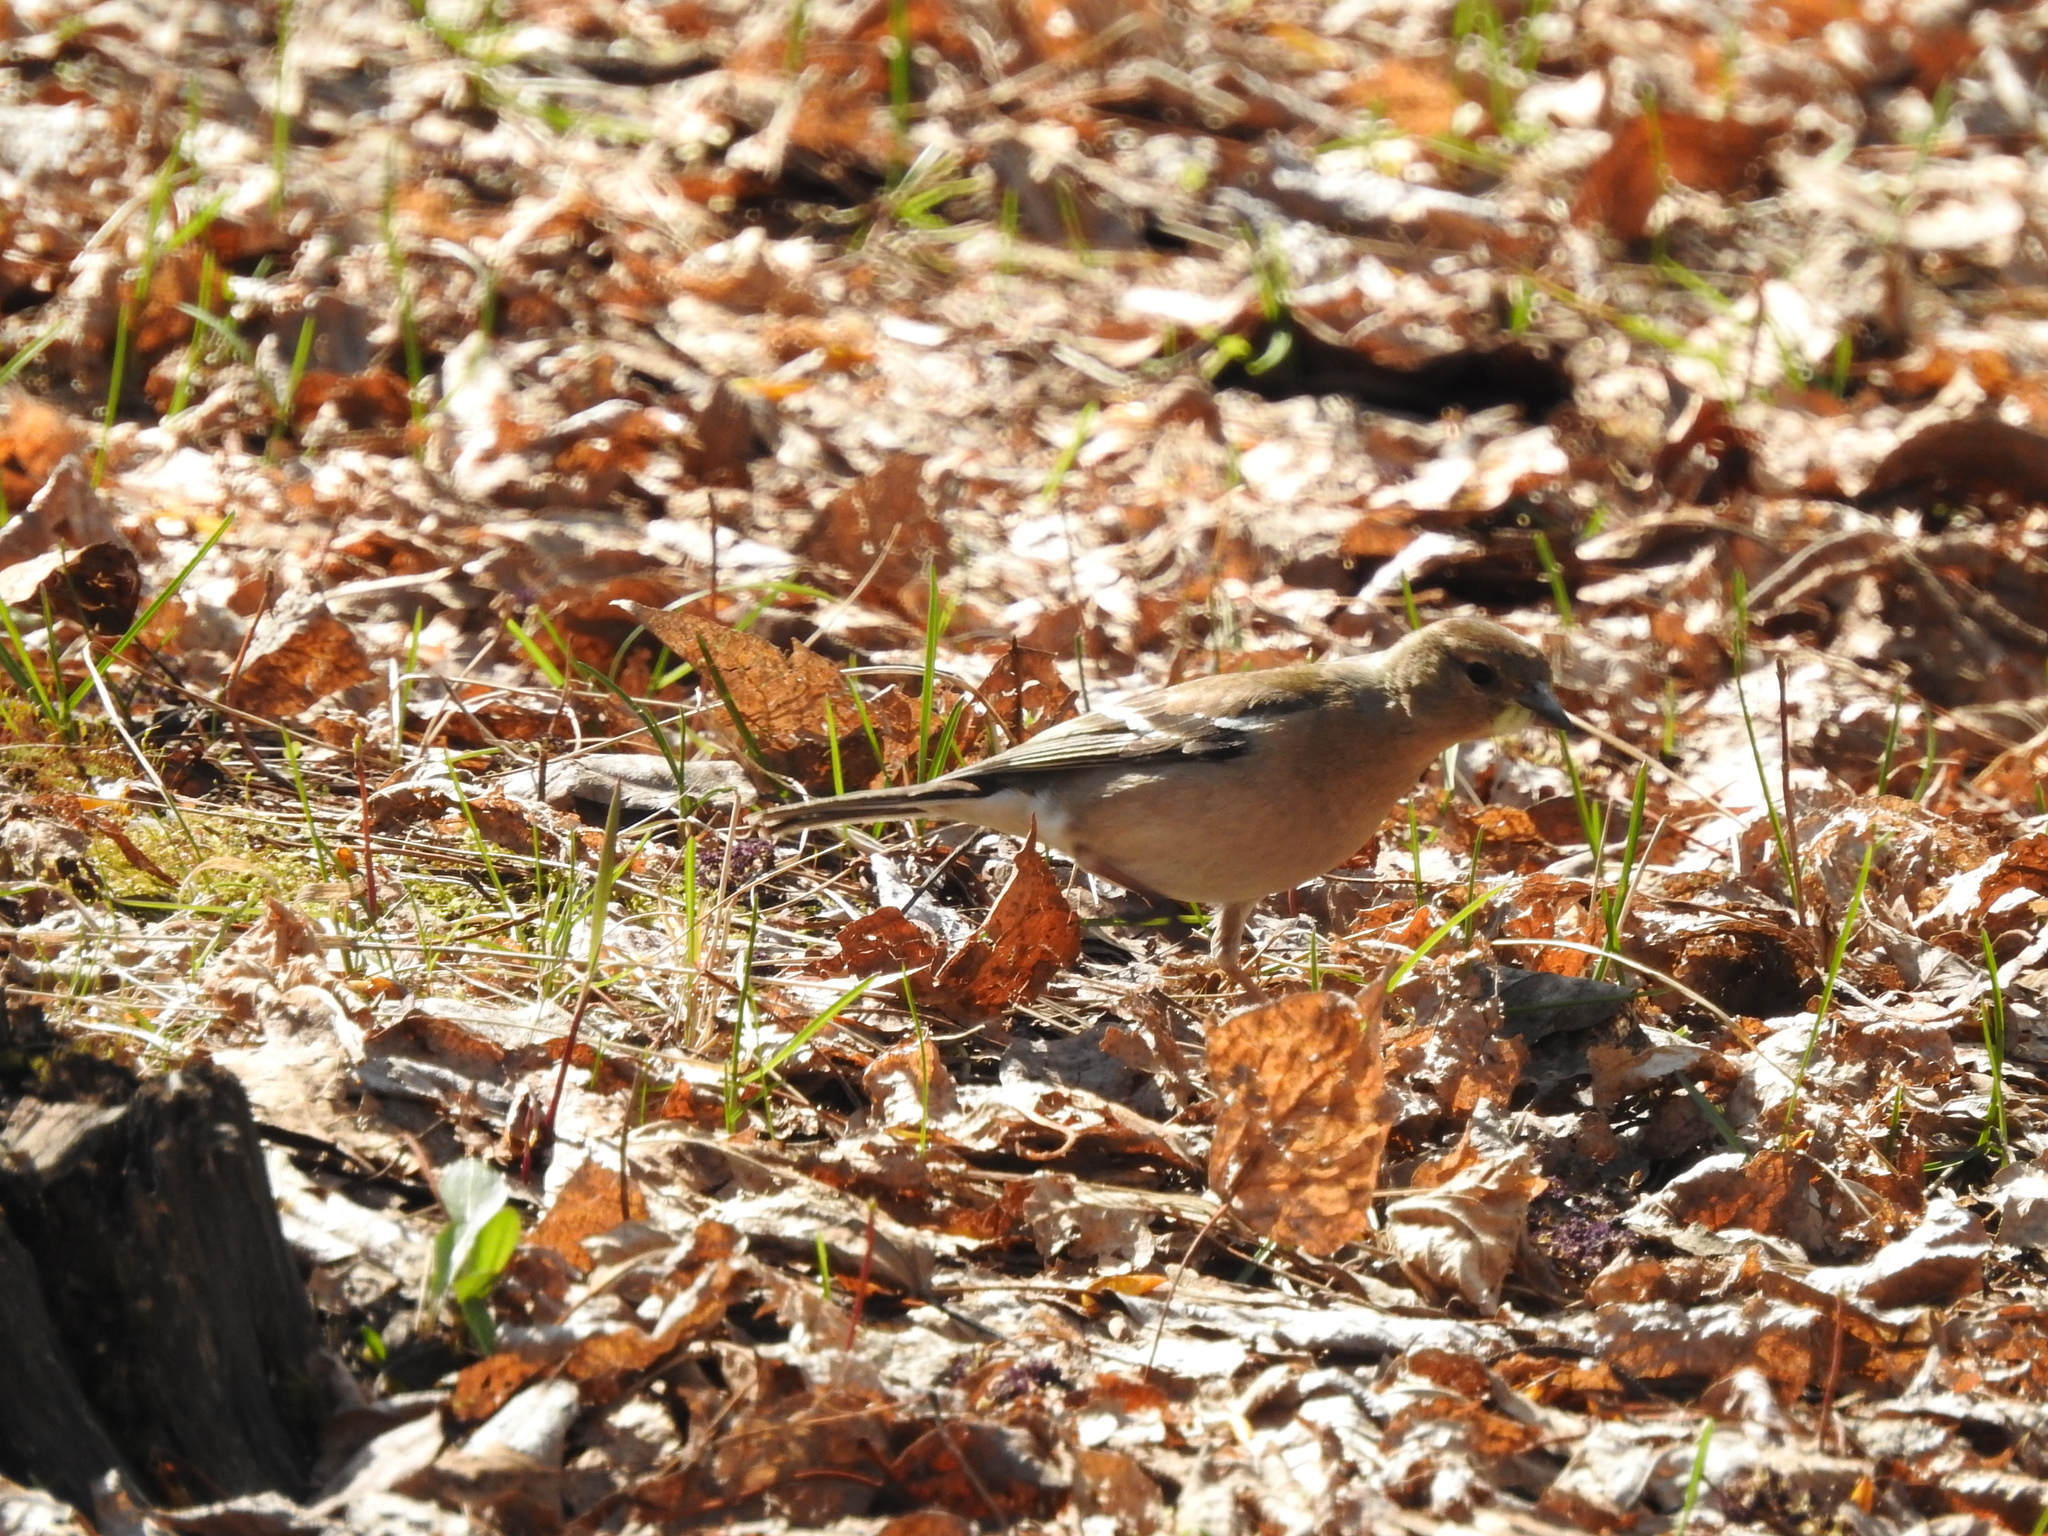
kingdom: Animalia
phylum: Chordata
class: Aves
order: Passeriformes
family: Fringillidae
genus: Fringilla
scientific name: Fringilla coelebs
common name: Common chaffinch
